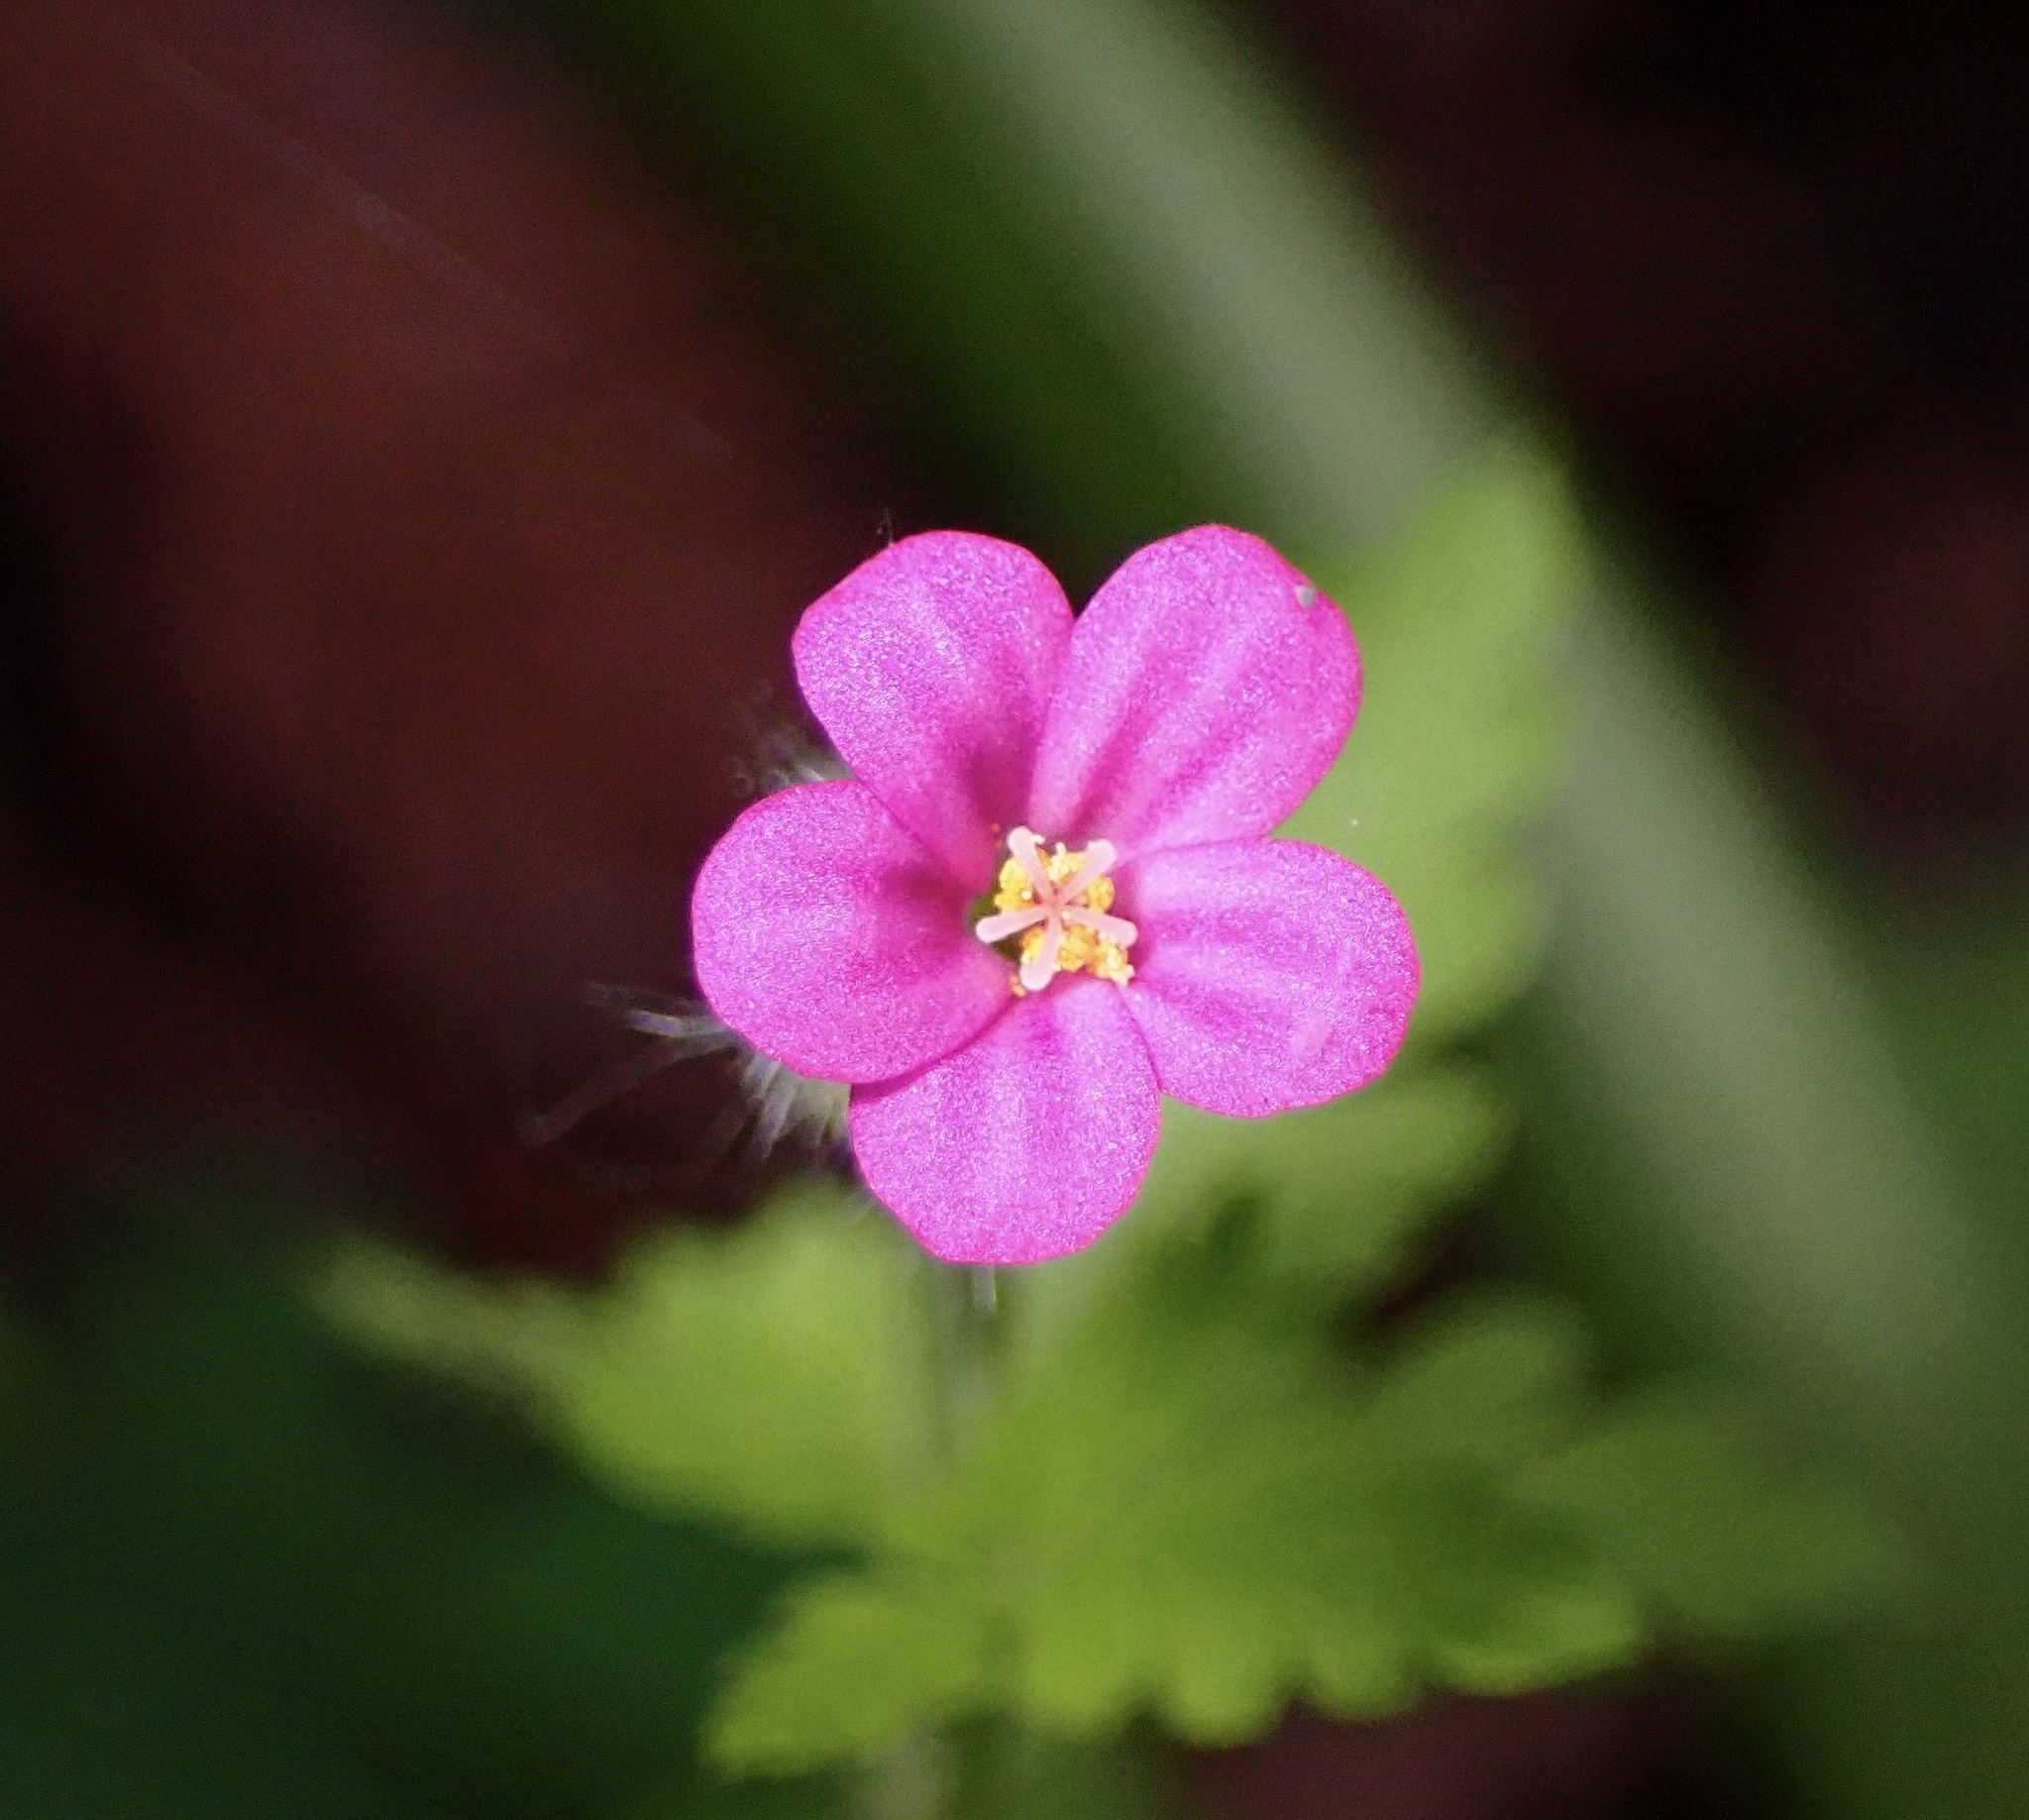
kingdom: Plantae
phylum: Tracheophyta
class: Magnoliopsida
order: Geraniales
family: Geraniaceae
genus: Geranium
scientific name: Geranium purpureum
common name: Little-robin
